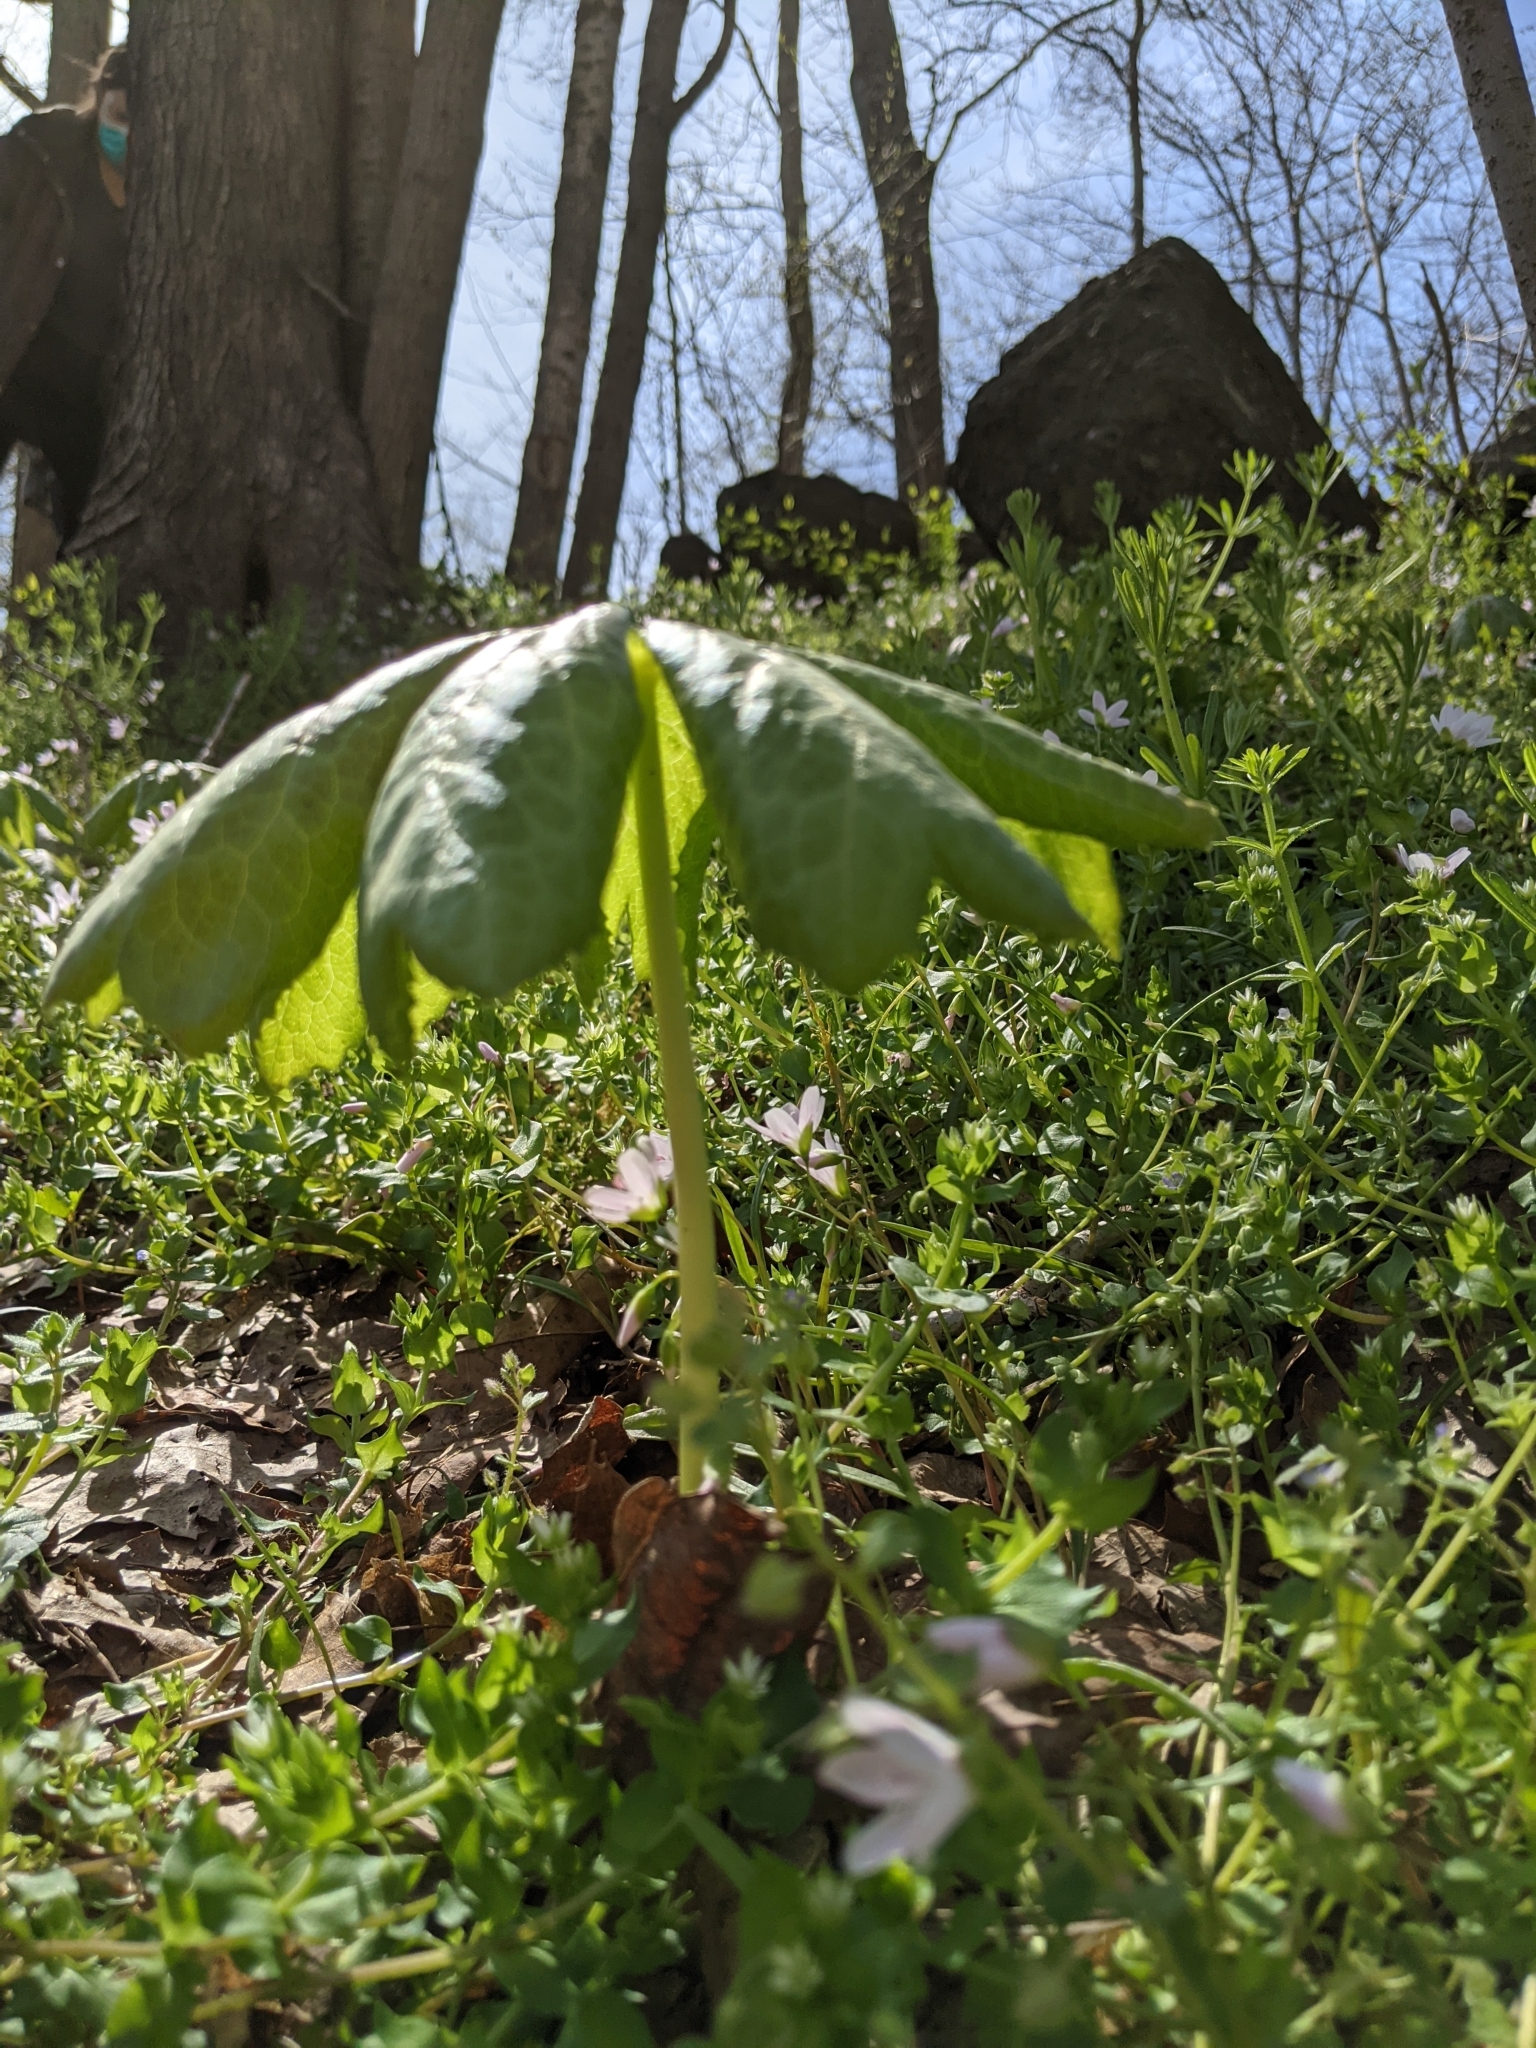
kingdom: Plantae
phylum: Tracheophyta
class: Magnoliopsida
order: Ranunculales
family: Berberidaceae
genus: Podophyllum
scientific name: Podophyllum peltatum
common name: Wild mandrake
